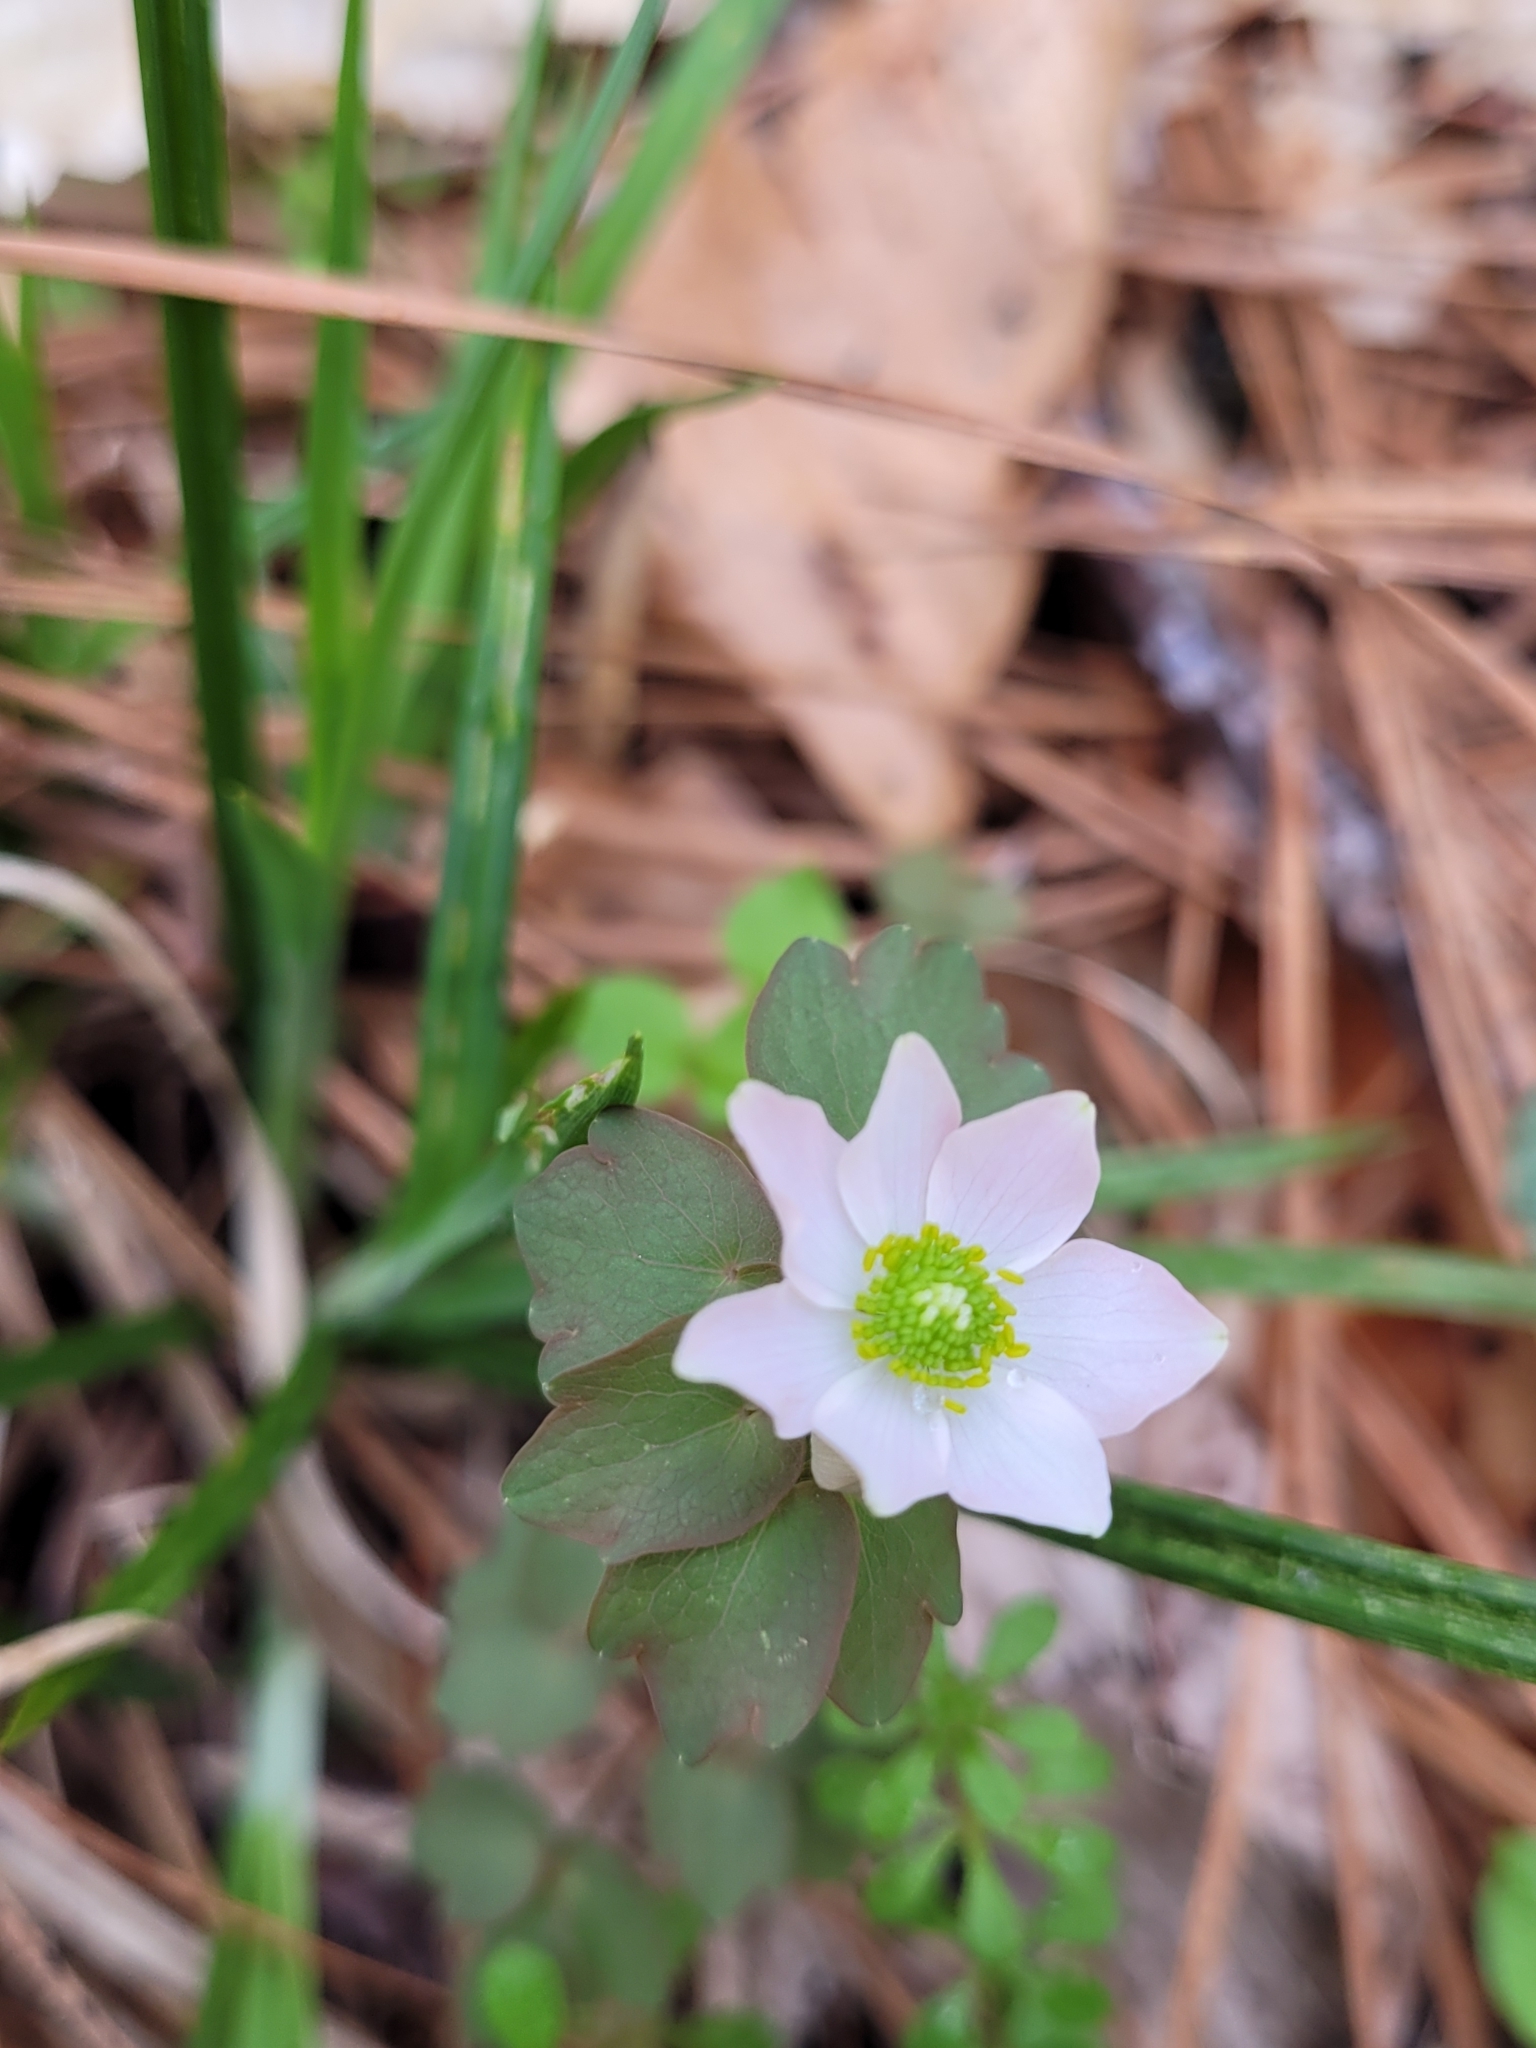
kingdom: Plantae
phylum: Tracheophyta
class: Magnoliopsida
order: Ranunculales
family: Ranunculaceae
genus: Thalictrum
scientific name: Thalictrum thalictroides
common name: Rue-anemone
